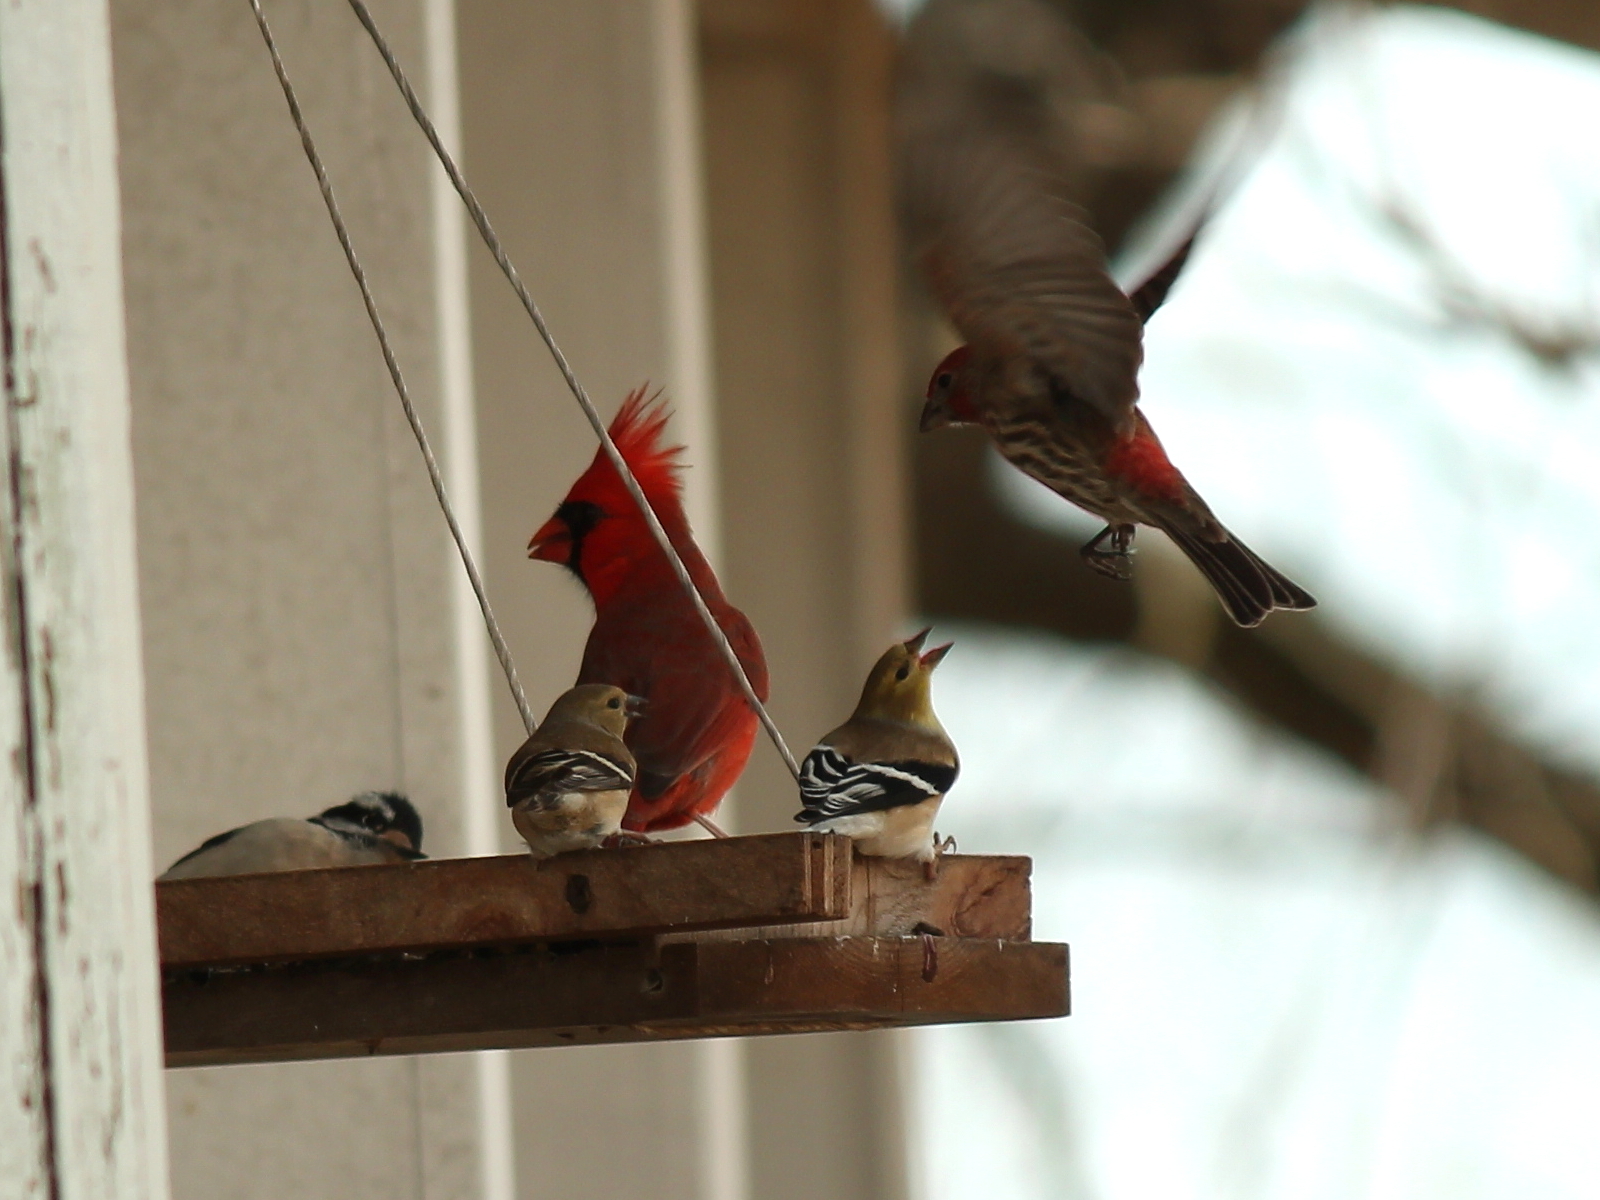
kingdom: Animalia
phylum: Chordata
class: Aves
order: Passeriformes
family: Fringillidae
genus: Haemorhous
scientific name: Haemorhous mexicanus
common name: House finch
